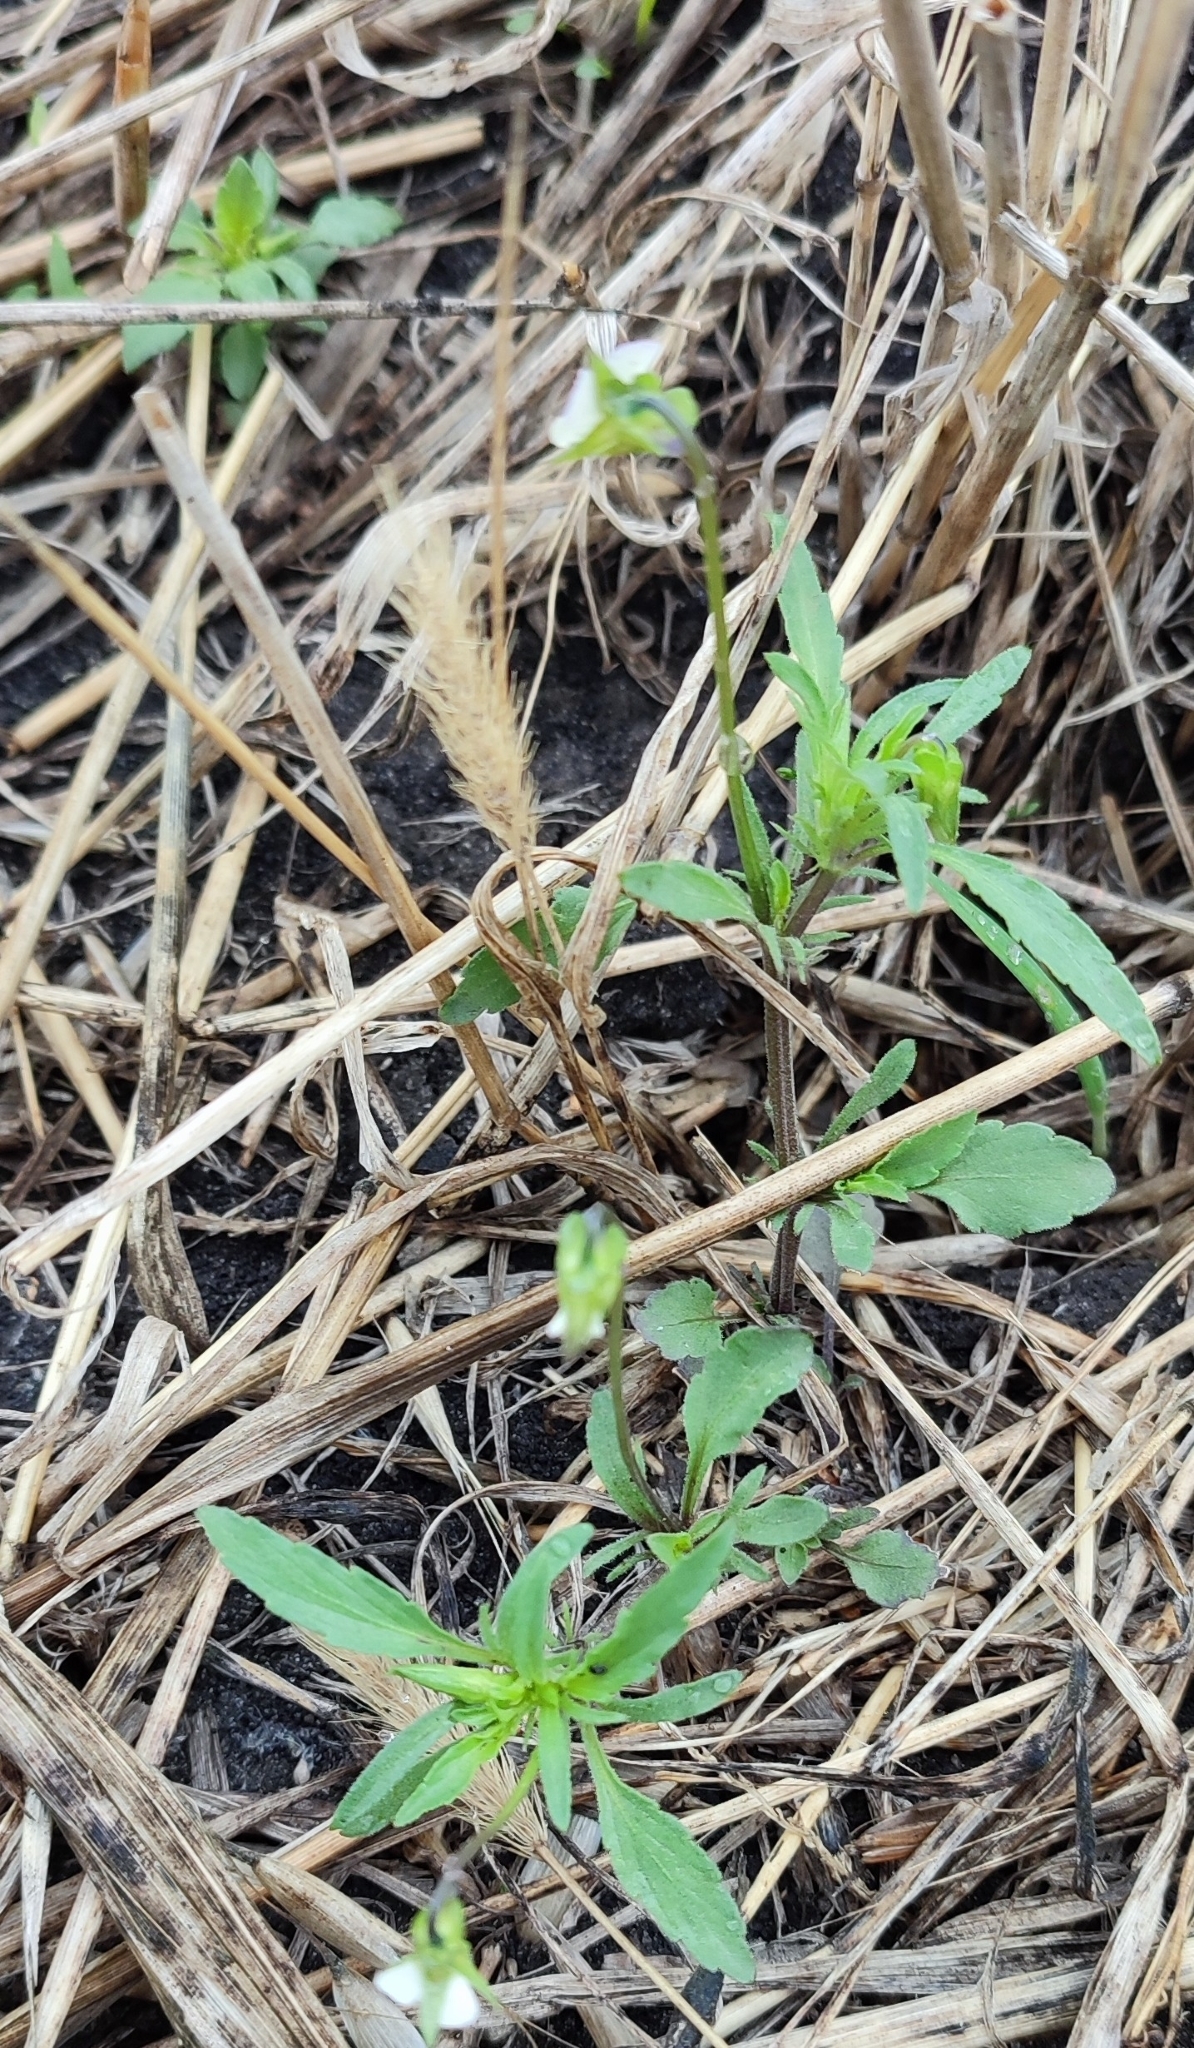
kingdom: Plantae
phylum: Tracheophyta
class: Magnoliopsida
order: Malpighiales
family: Violaceae
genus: Viola
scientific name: Viola arvensis
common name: Field pansy
